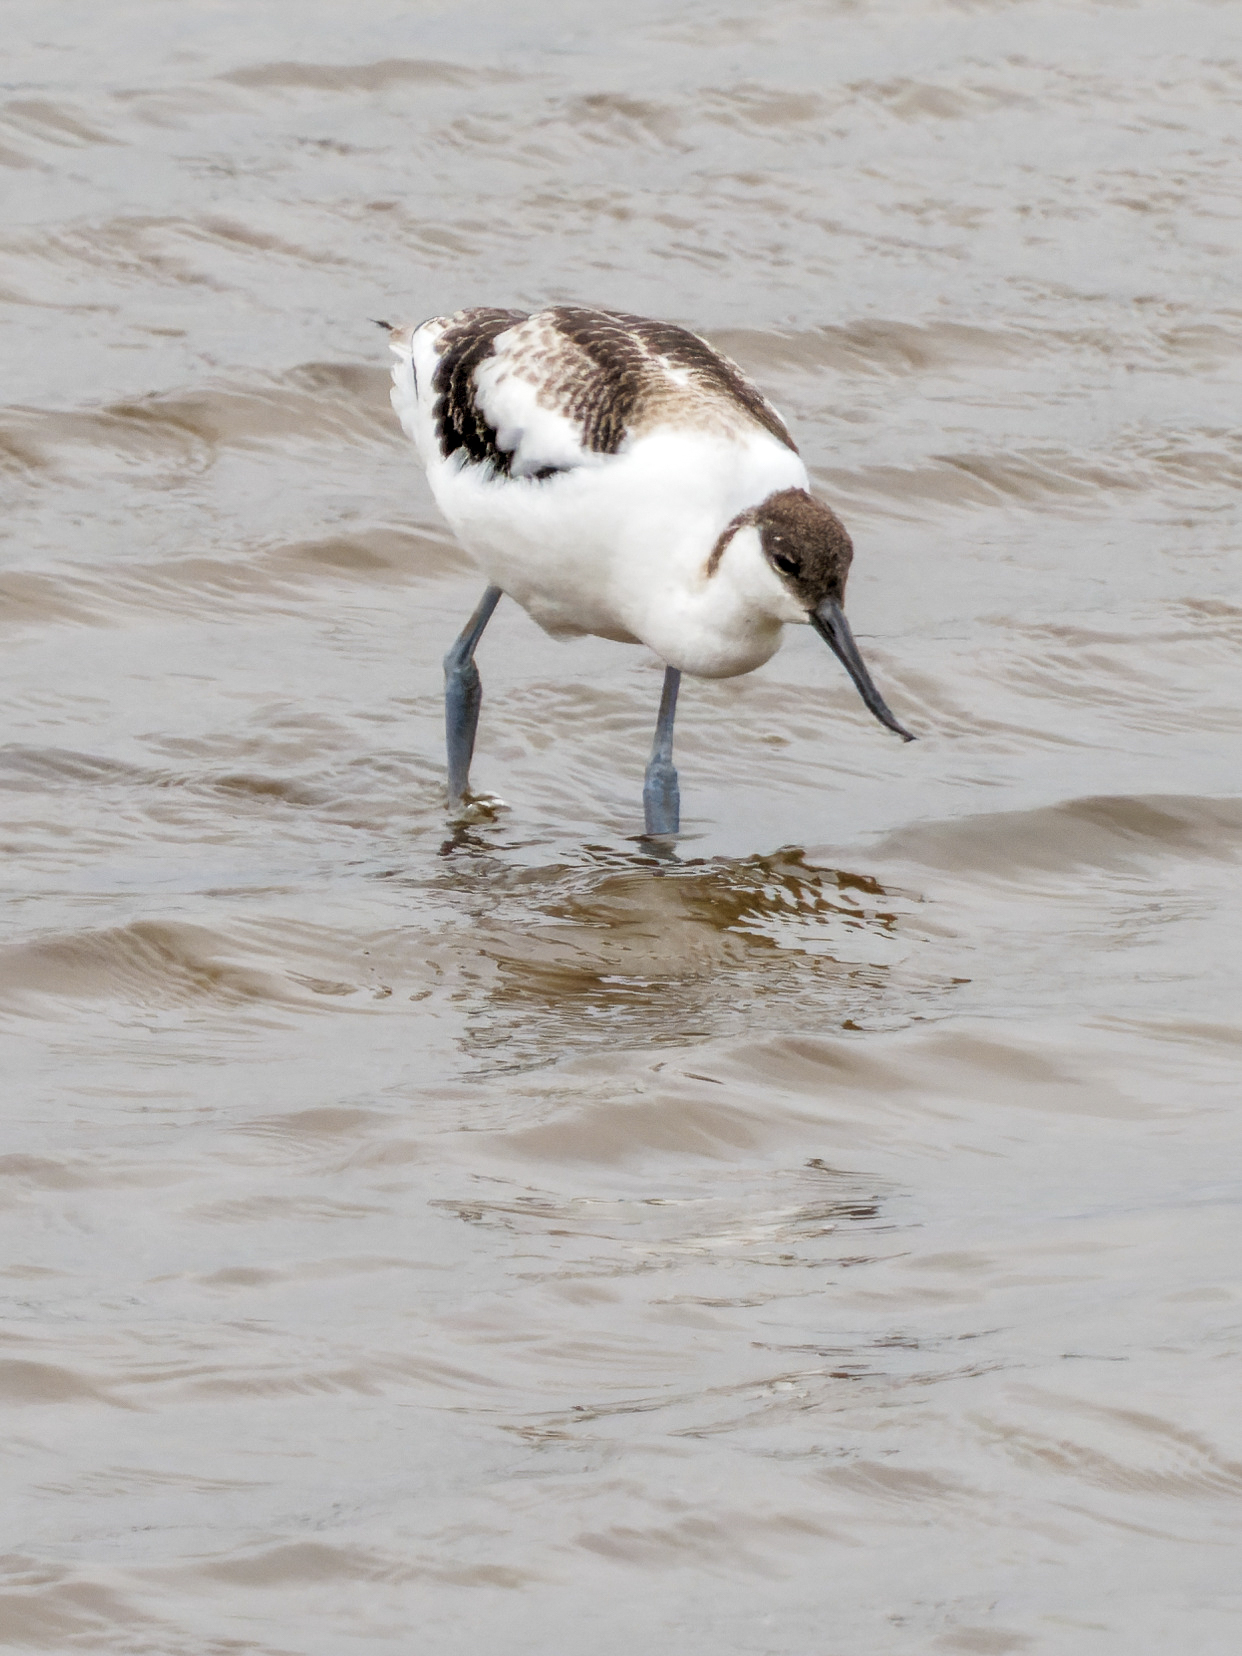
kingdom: Animalia
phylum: Chordata
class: Aves
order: Charadriiformes
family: Recurvirostridae
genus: Recurvirostra
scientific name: Recurvirostra avosetta
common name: Pied avocet
